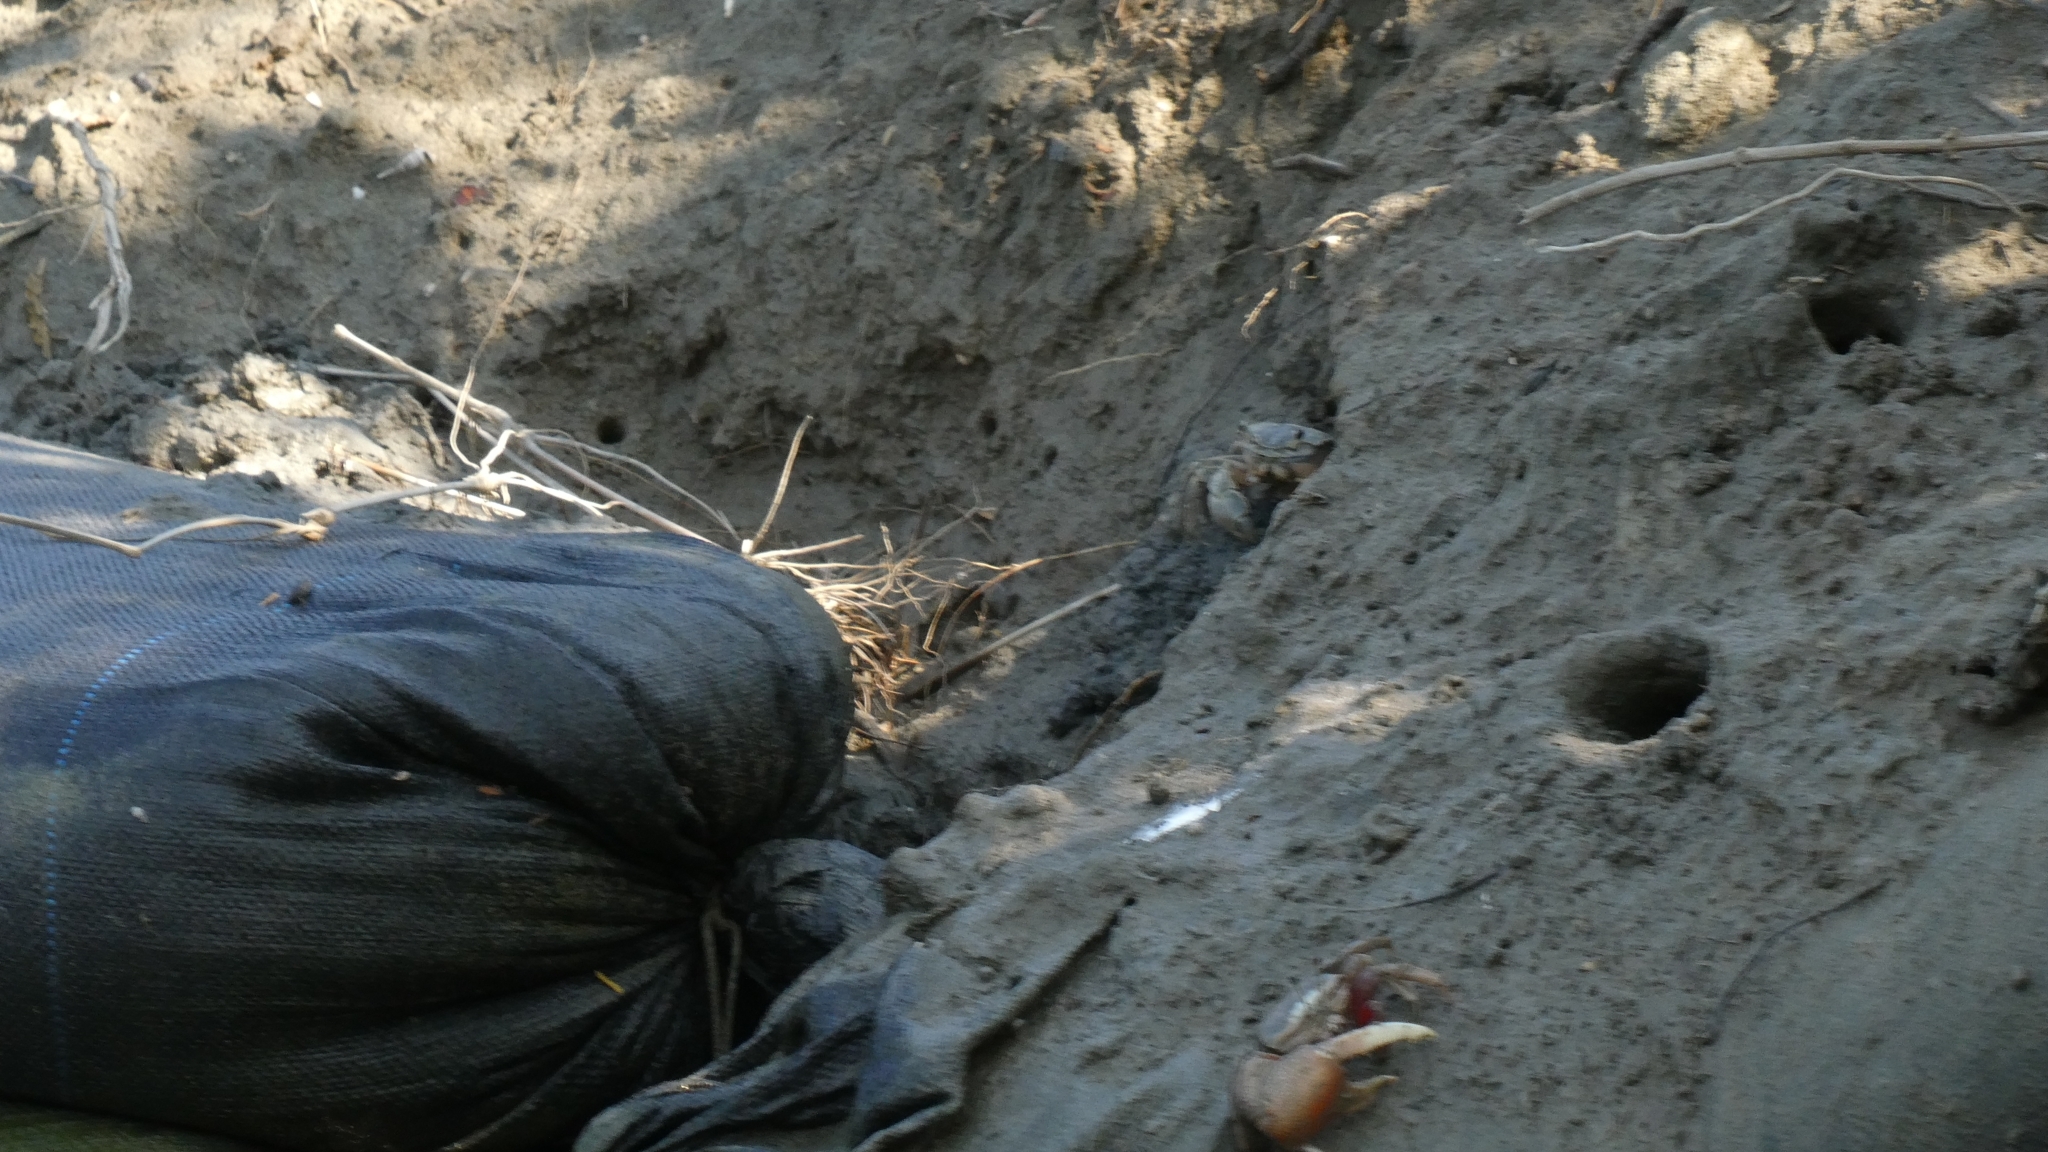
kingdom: Animalia
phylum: Arthropoda
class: Malacostraca
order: Decapoda
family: Ocypodidae
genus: Tubuca
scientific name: Tubuca arcuata
